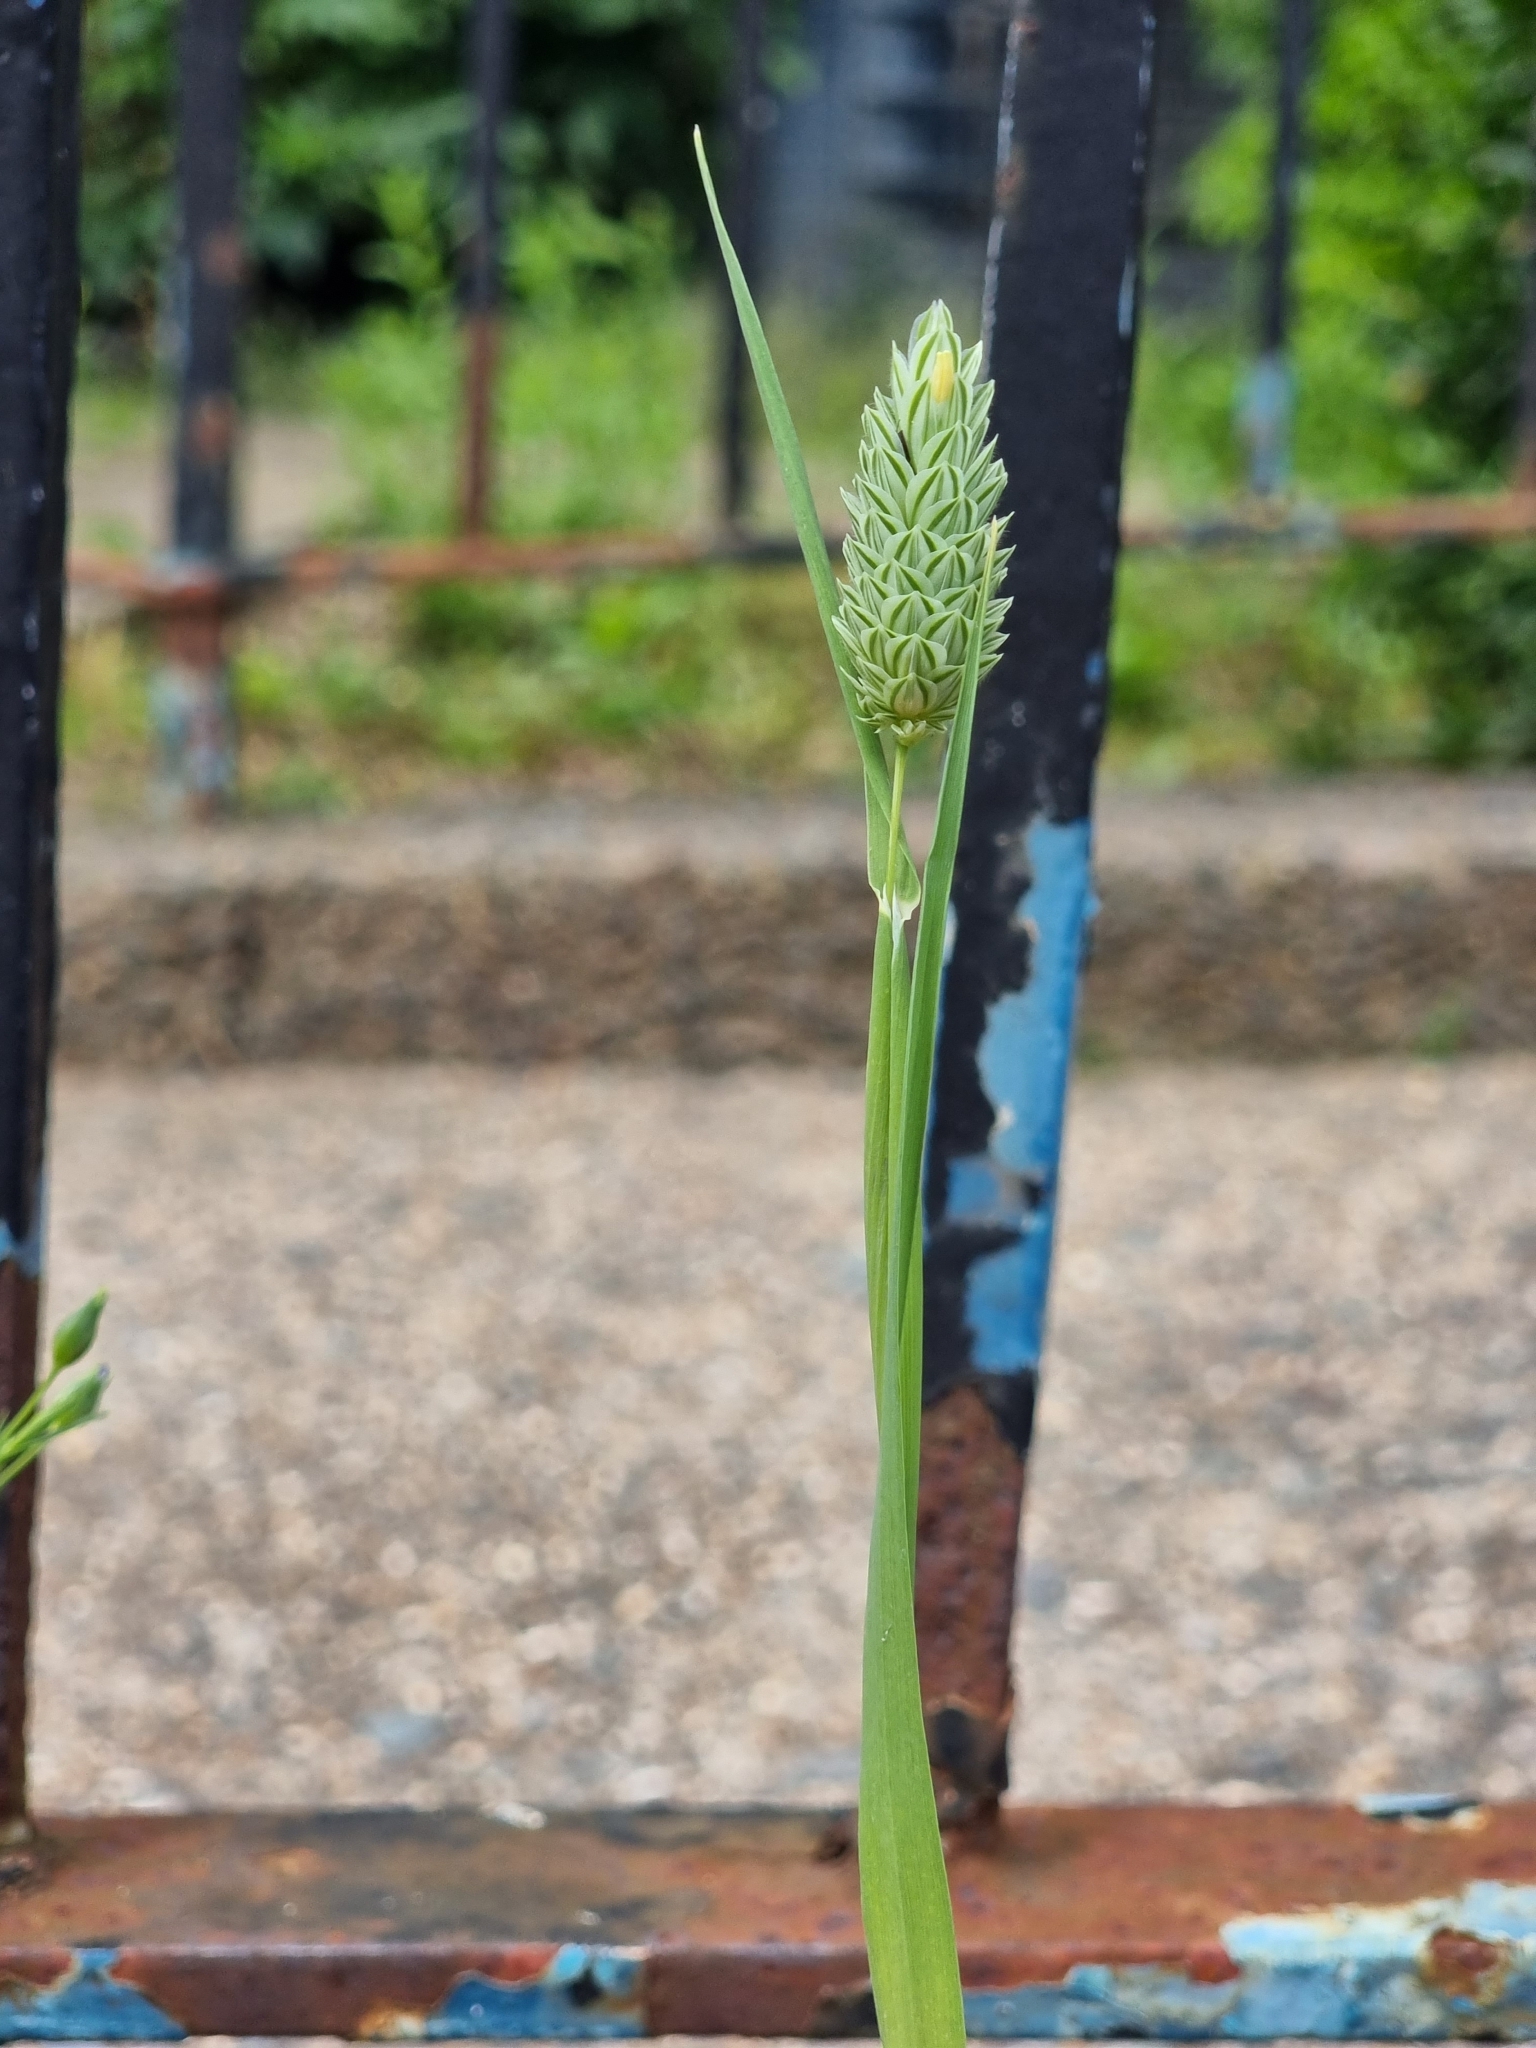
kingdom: Plantae
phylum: Tracheophyta
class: Liliopsida
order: Poales
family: Poaceae
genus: Phalaris
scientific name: Phalaris canariensis
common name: Annual canarygrass
